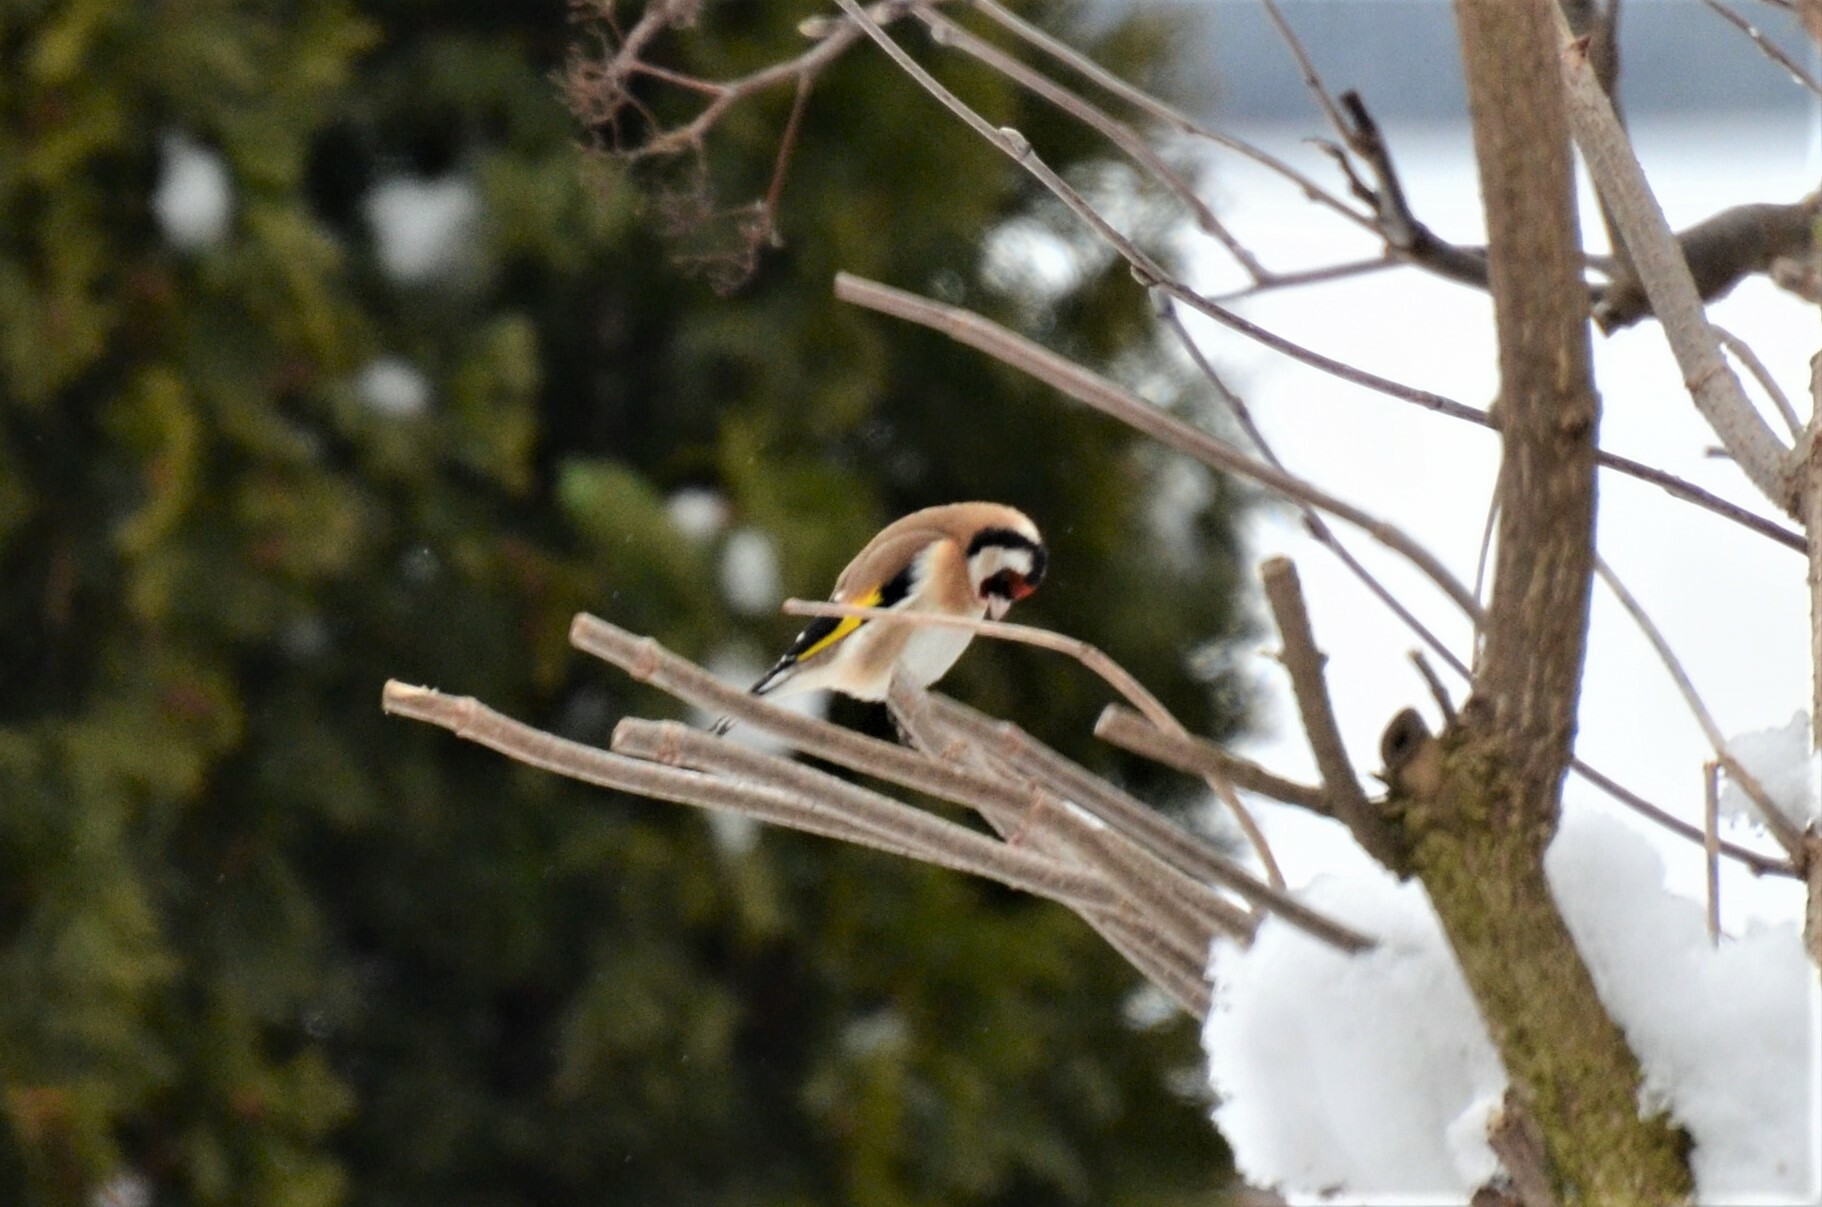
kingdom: Animalia
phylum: Chordata
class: Aves
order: Passeriformes
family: Fringillidae
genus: Carduelis
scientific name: Carduelis carduelis
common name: European goldfinch
